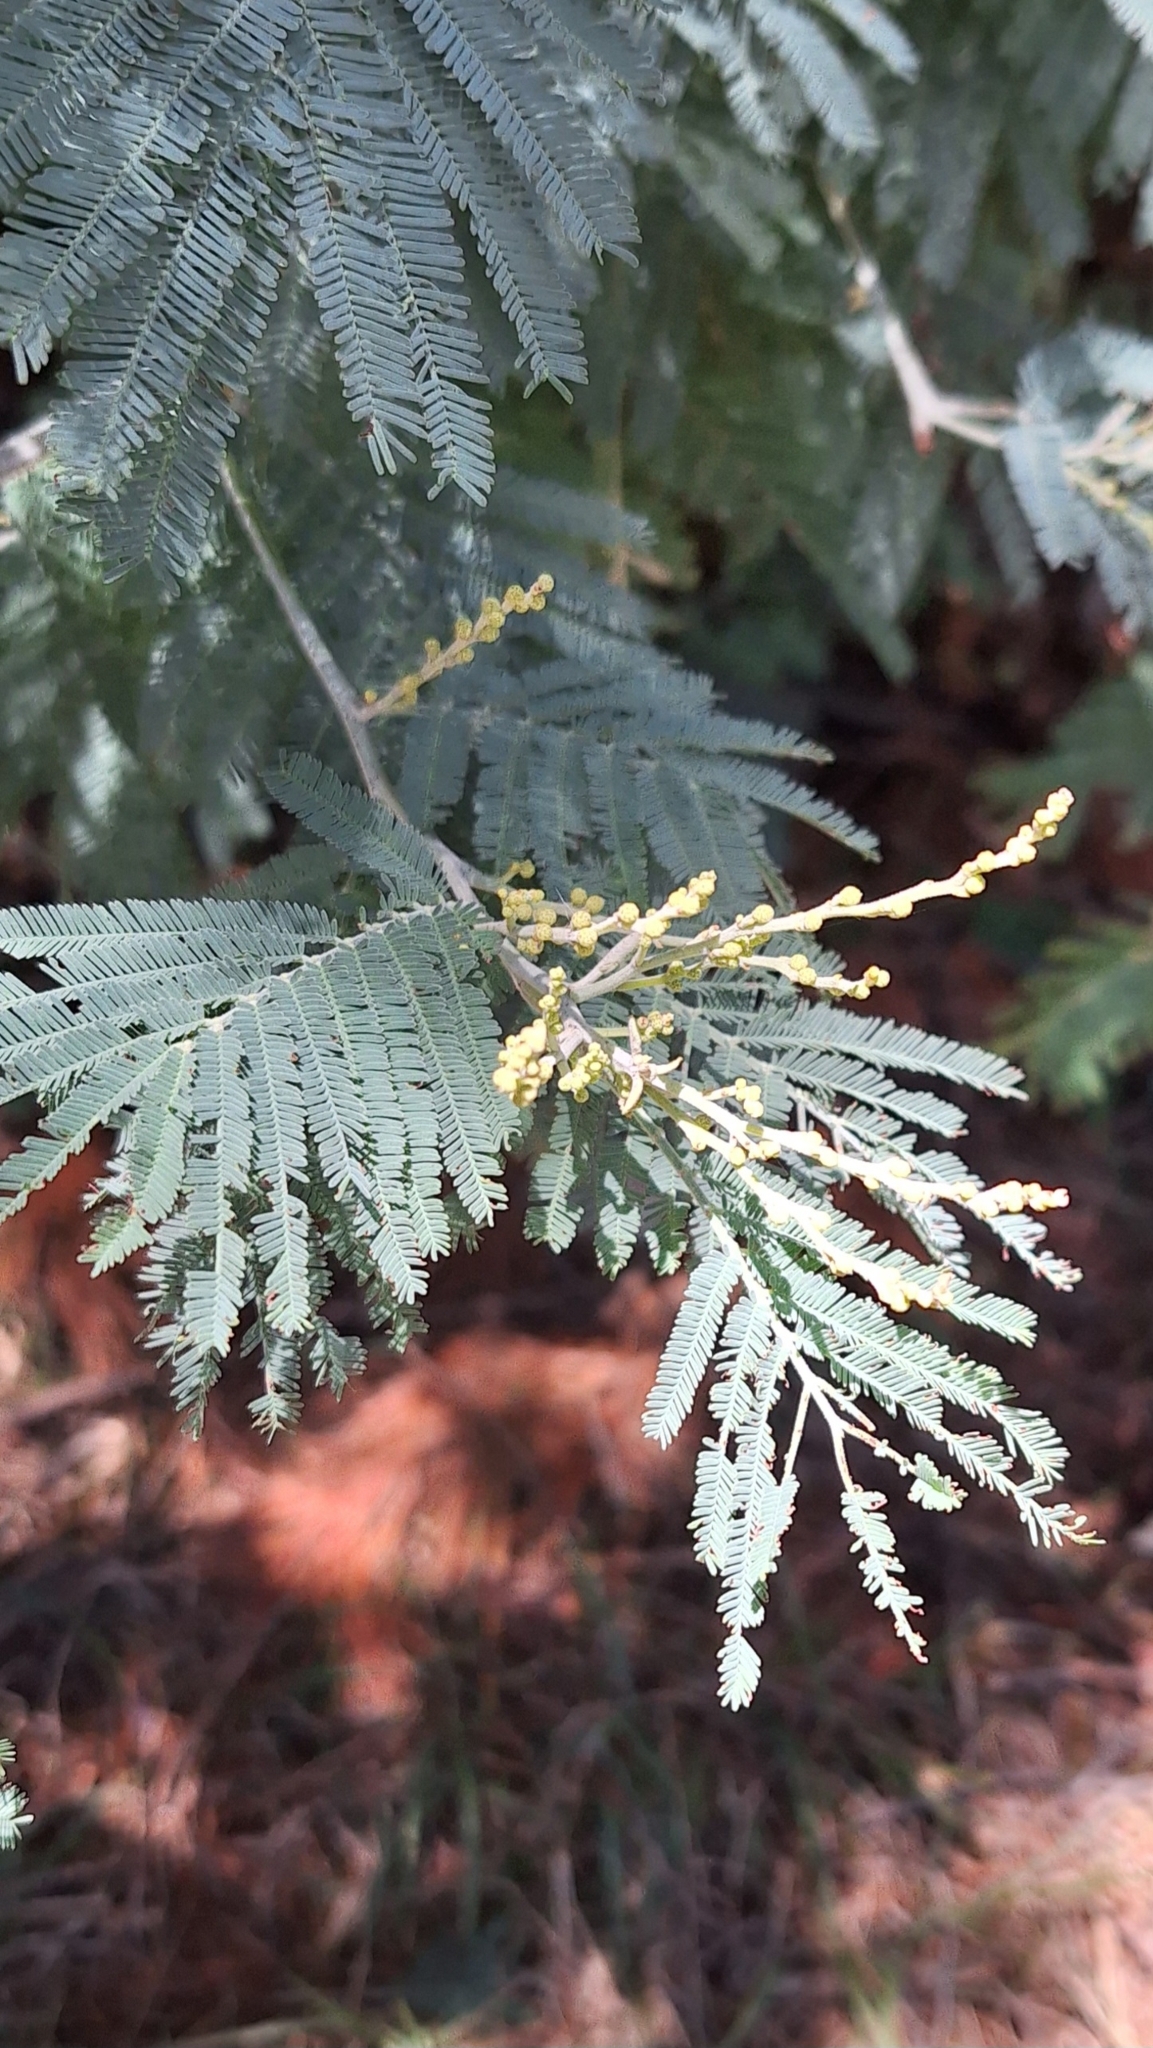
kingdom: Plantae
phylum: Tracheophyta
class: Magnoliopsida
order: Fabales
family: Fabaceae
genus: Acacia
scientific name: Acacia dealbata
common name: Silver wattle
